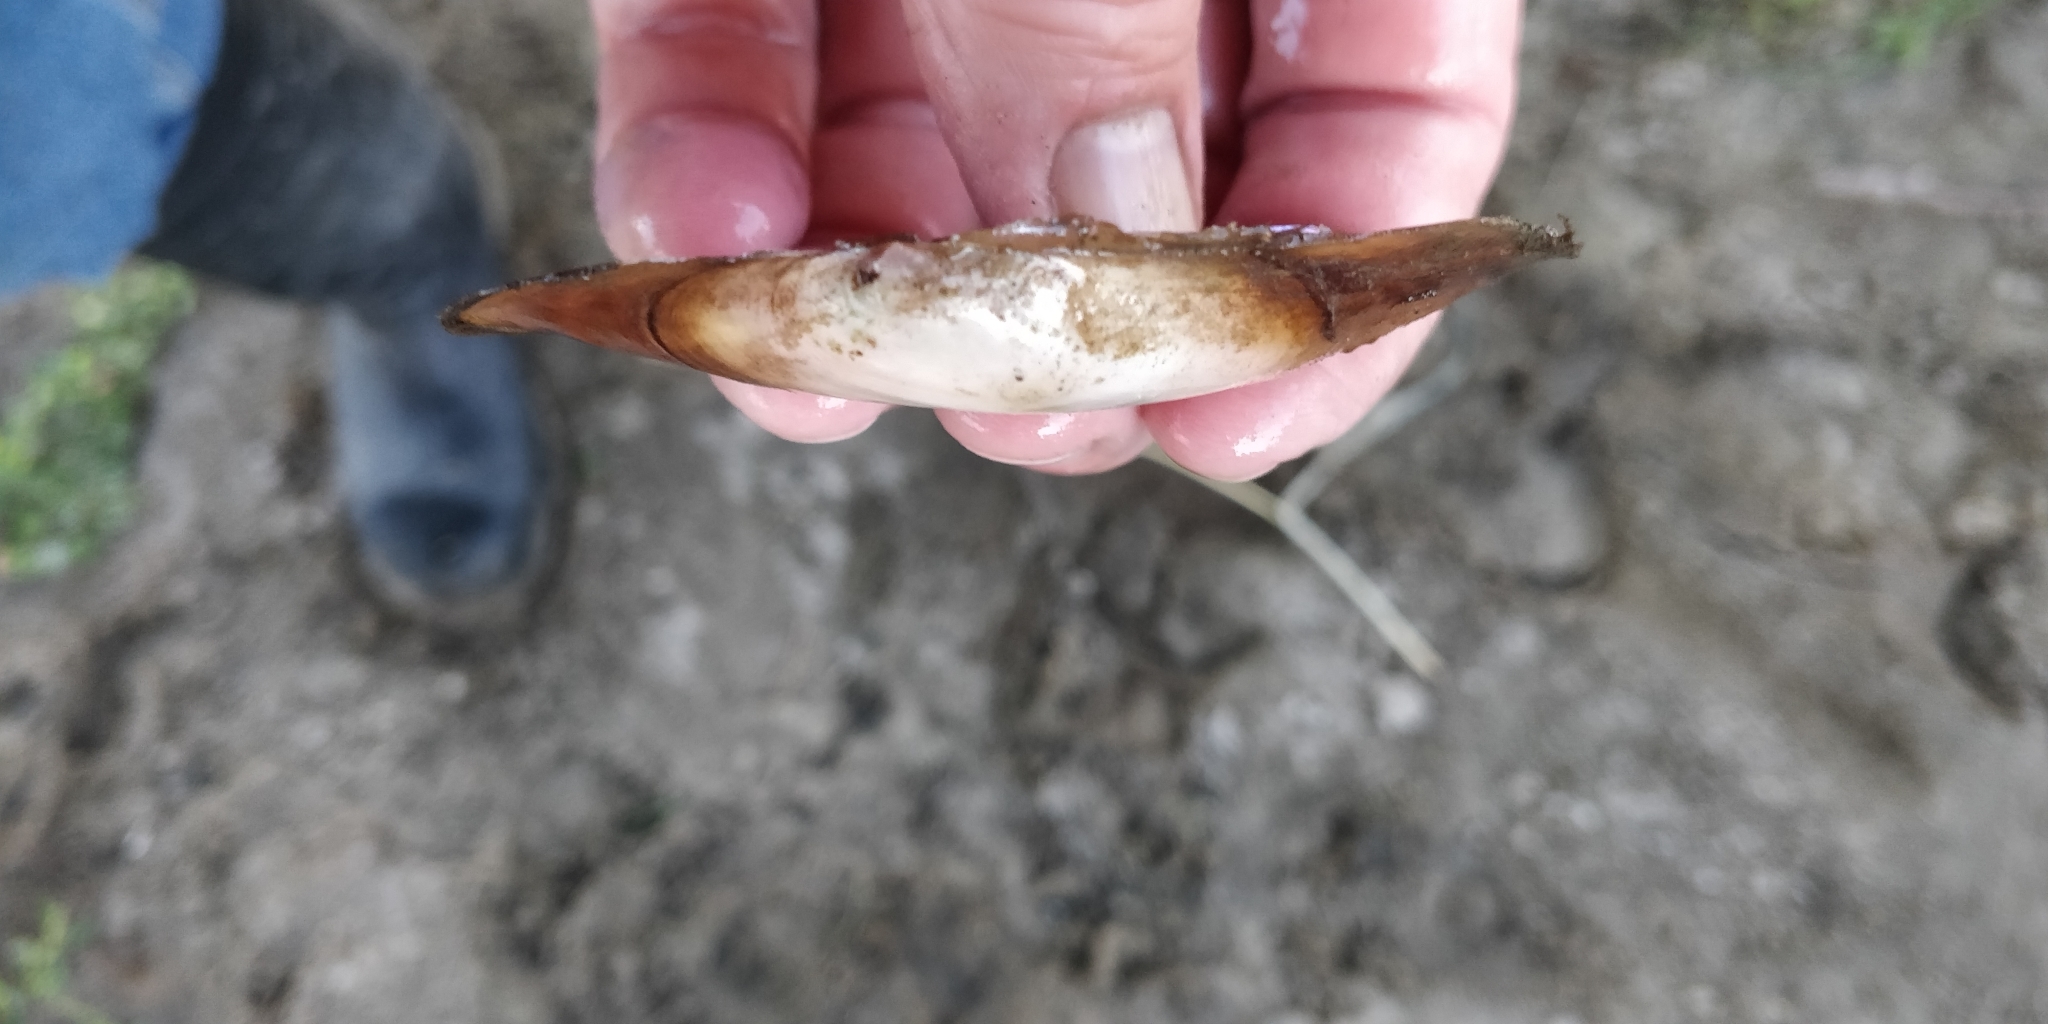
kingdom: Animalia
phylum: Mollusca
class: Bivalvia
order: Unionida
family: Unionidae
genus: Potamilus
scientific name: Potamilus ohiensis
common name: Pink papershell
